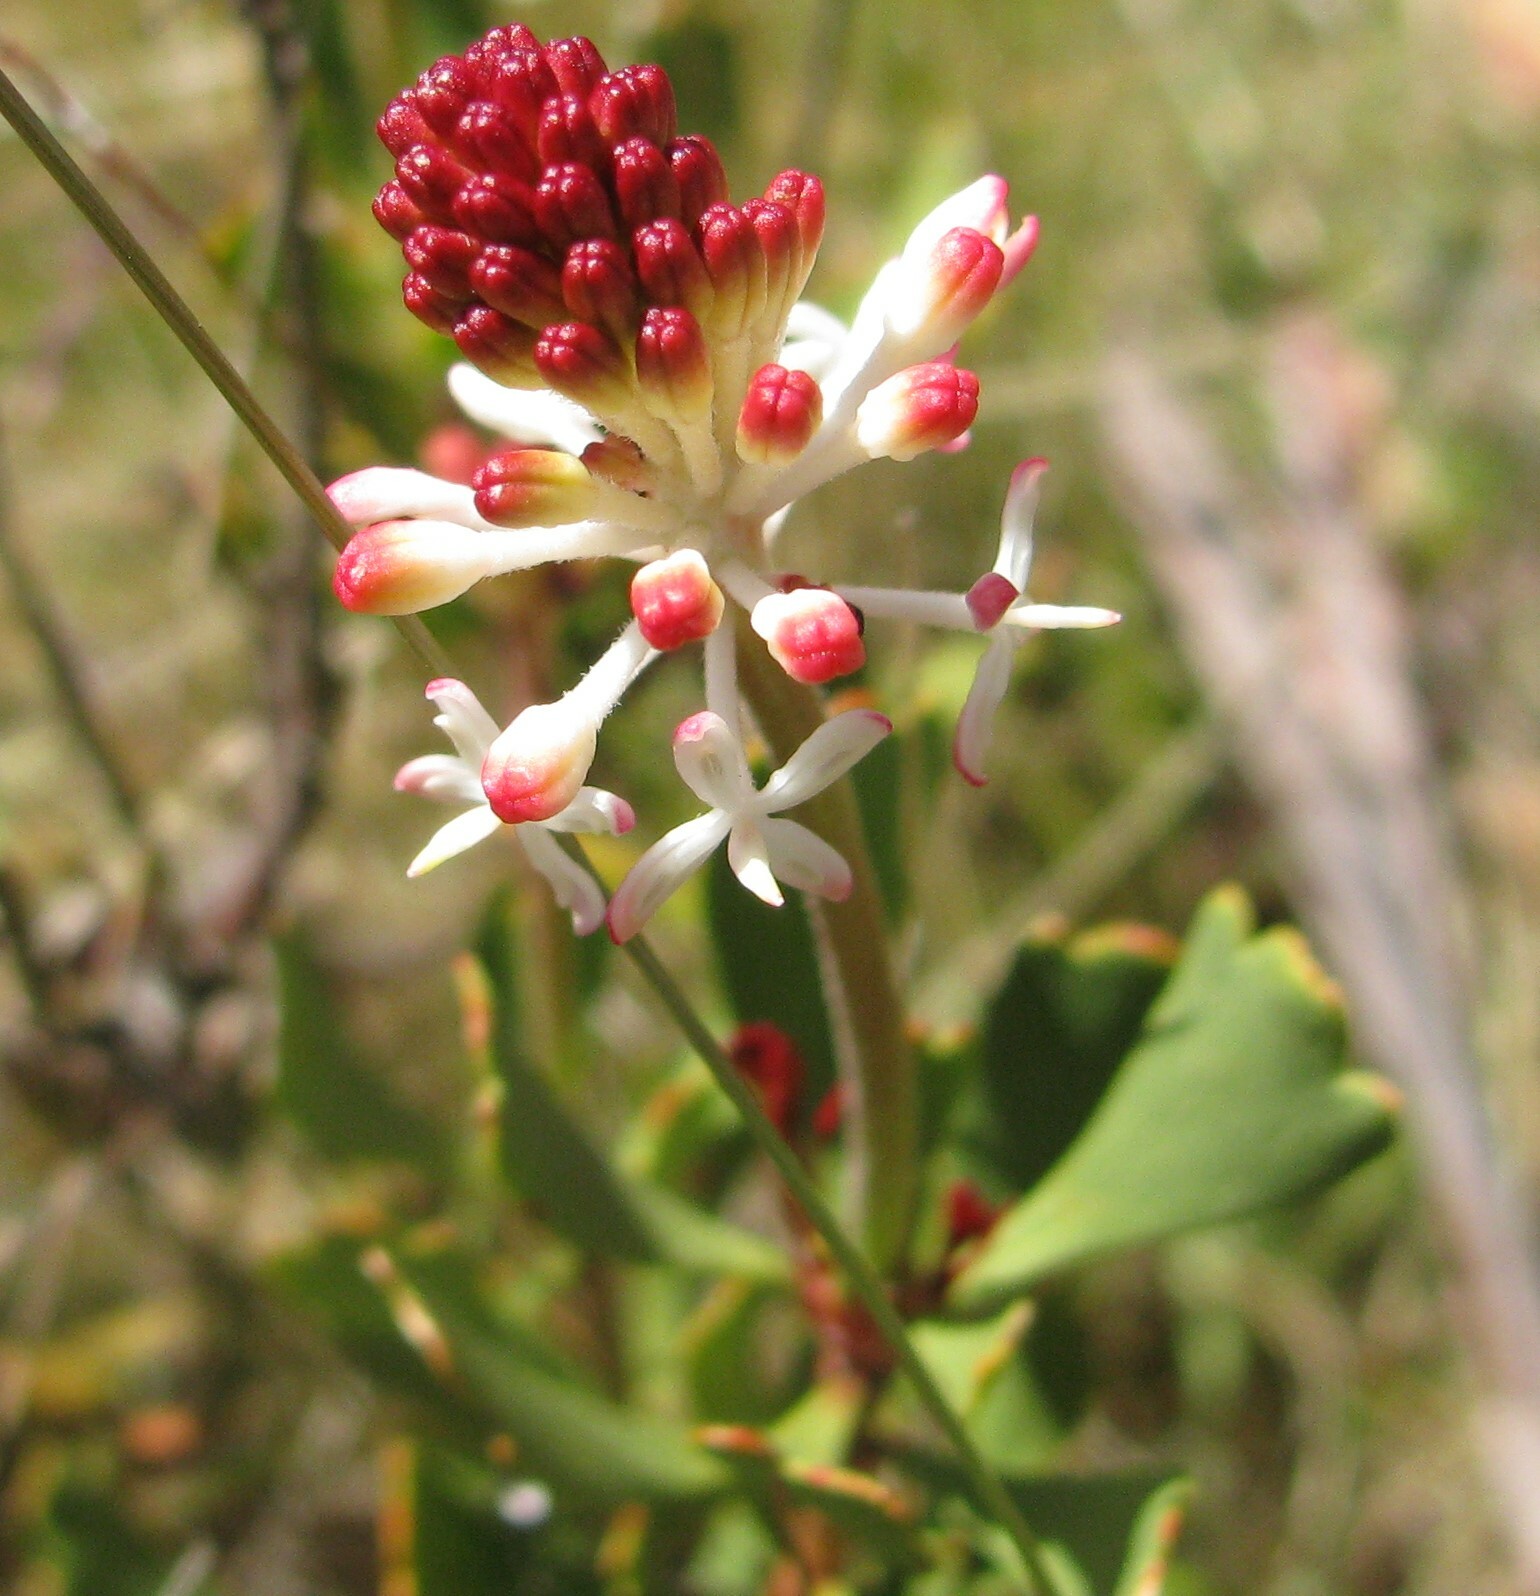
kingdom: Plantae
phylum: Tracheophyta
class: Magnoliopsida
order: Proteales
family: Proteaceae
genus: Bellendena
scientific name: Bellendena montana
